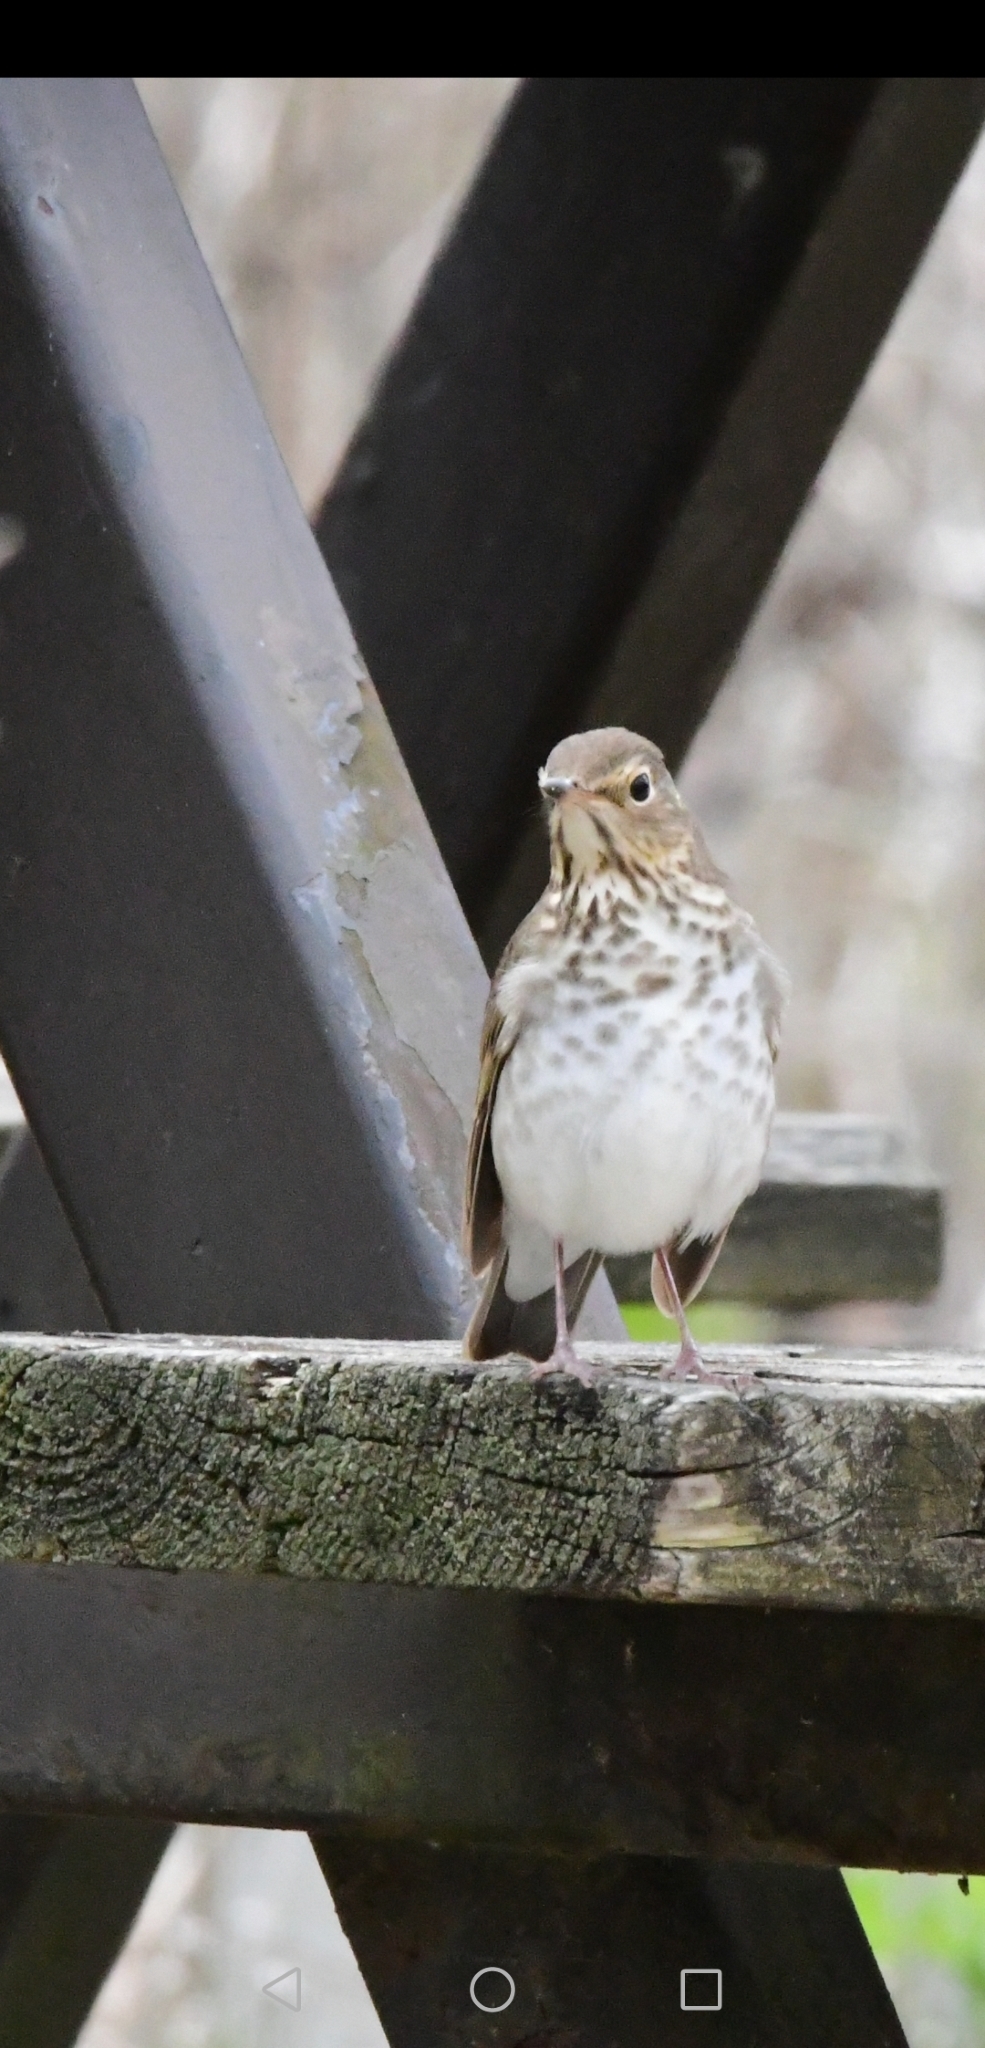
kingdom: Animalia
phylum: Chordata
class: Aves
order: Passeriformes
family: Turdidae
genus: Catharus
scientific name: Catharus ustulatus
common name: Swainson's thrush
